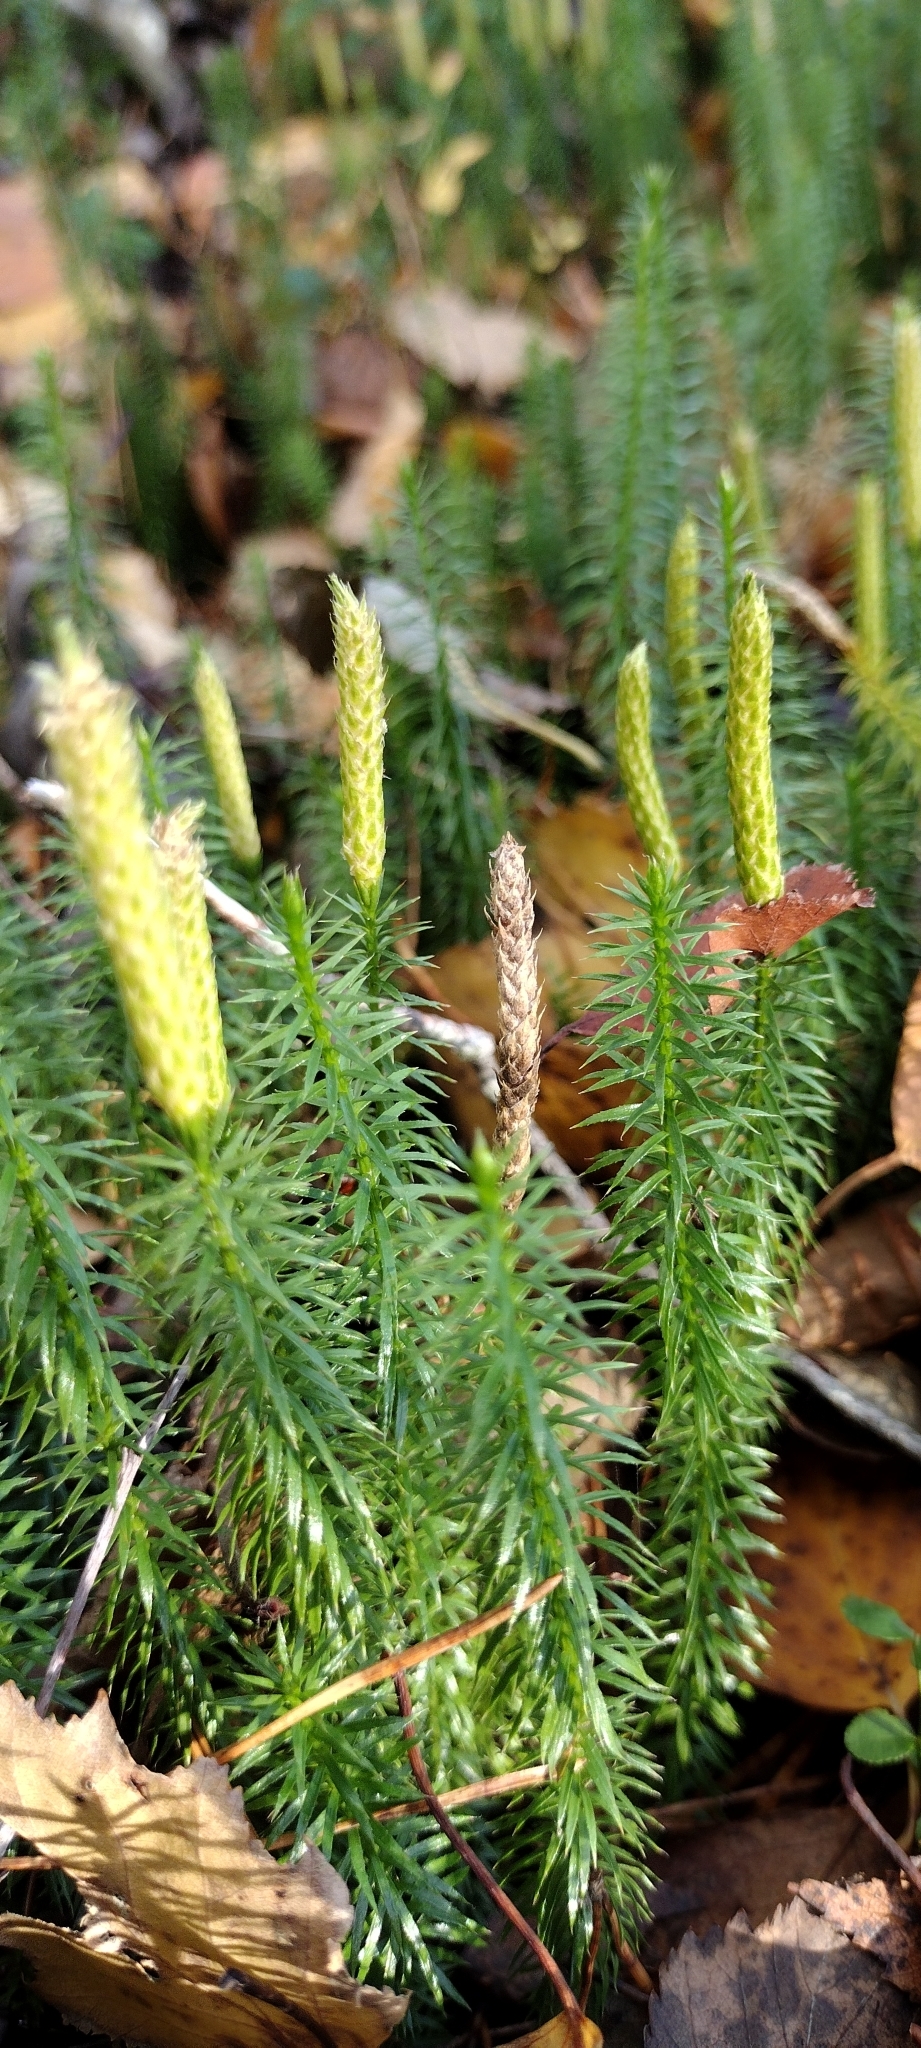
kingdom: Plantae
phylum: Tracheophyta
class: Lycopodiopsida
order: Lycopodiales
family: Lycopodiaceae
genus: Spinulum
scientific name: Spinulum annotinum
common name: Interrupted club-moss
